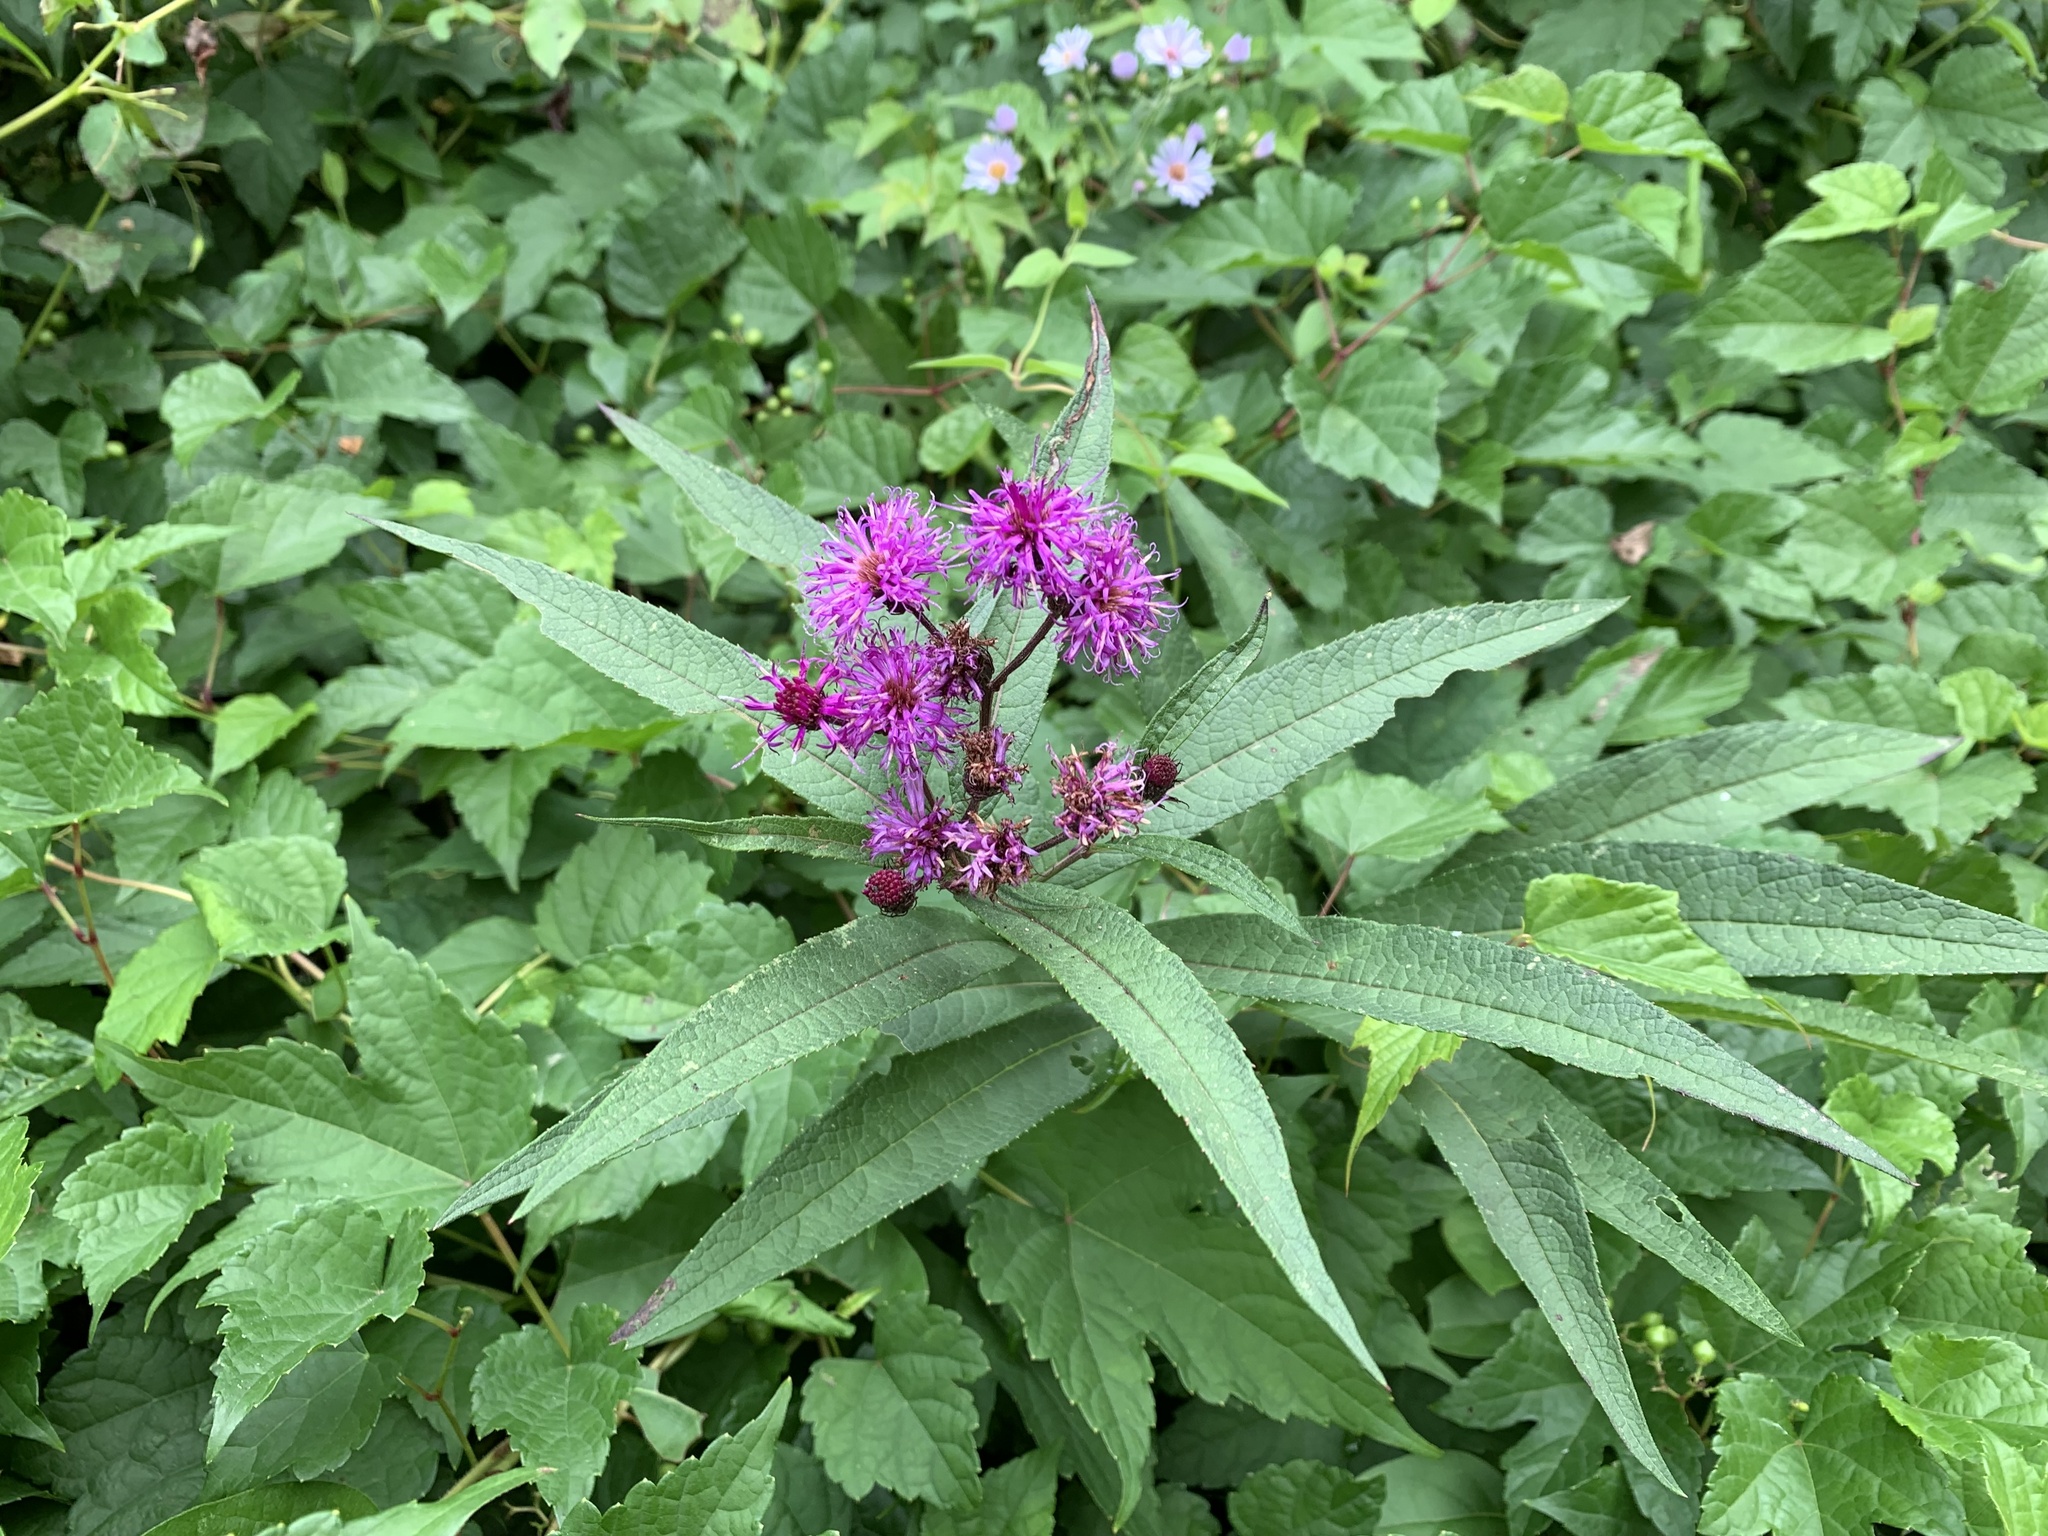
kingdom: Plantae
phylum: Tracheophyta
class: Magnoliopsida
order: Asterales
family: Asteraceae
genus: Vernonia
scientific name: Vernonia noveboracensis
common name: New york ironweed
